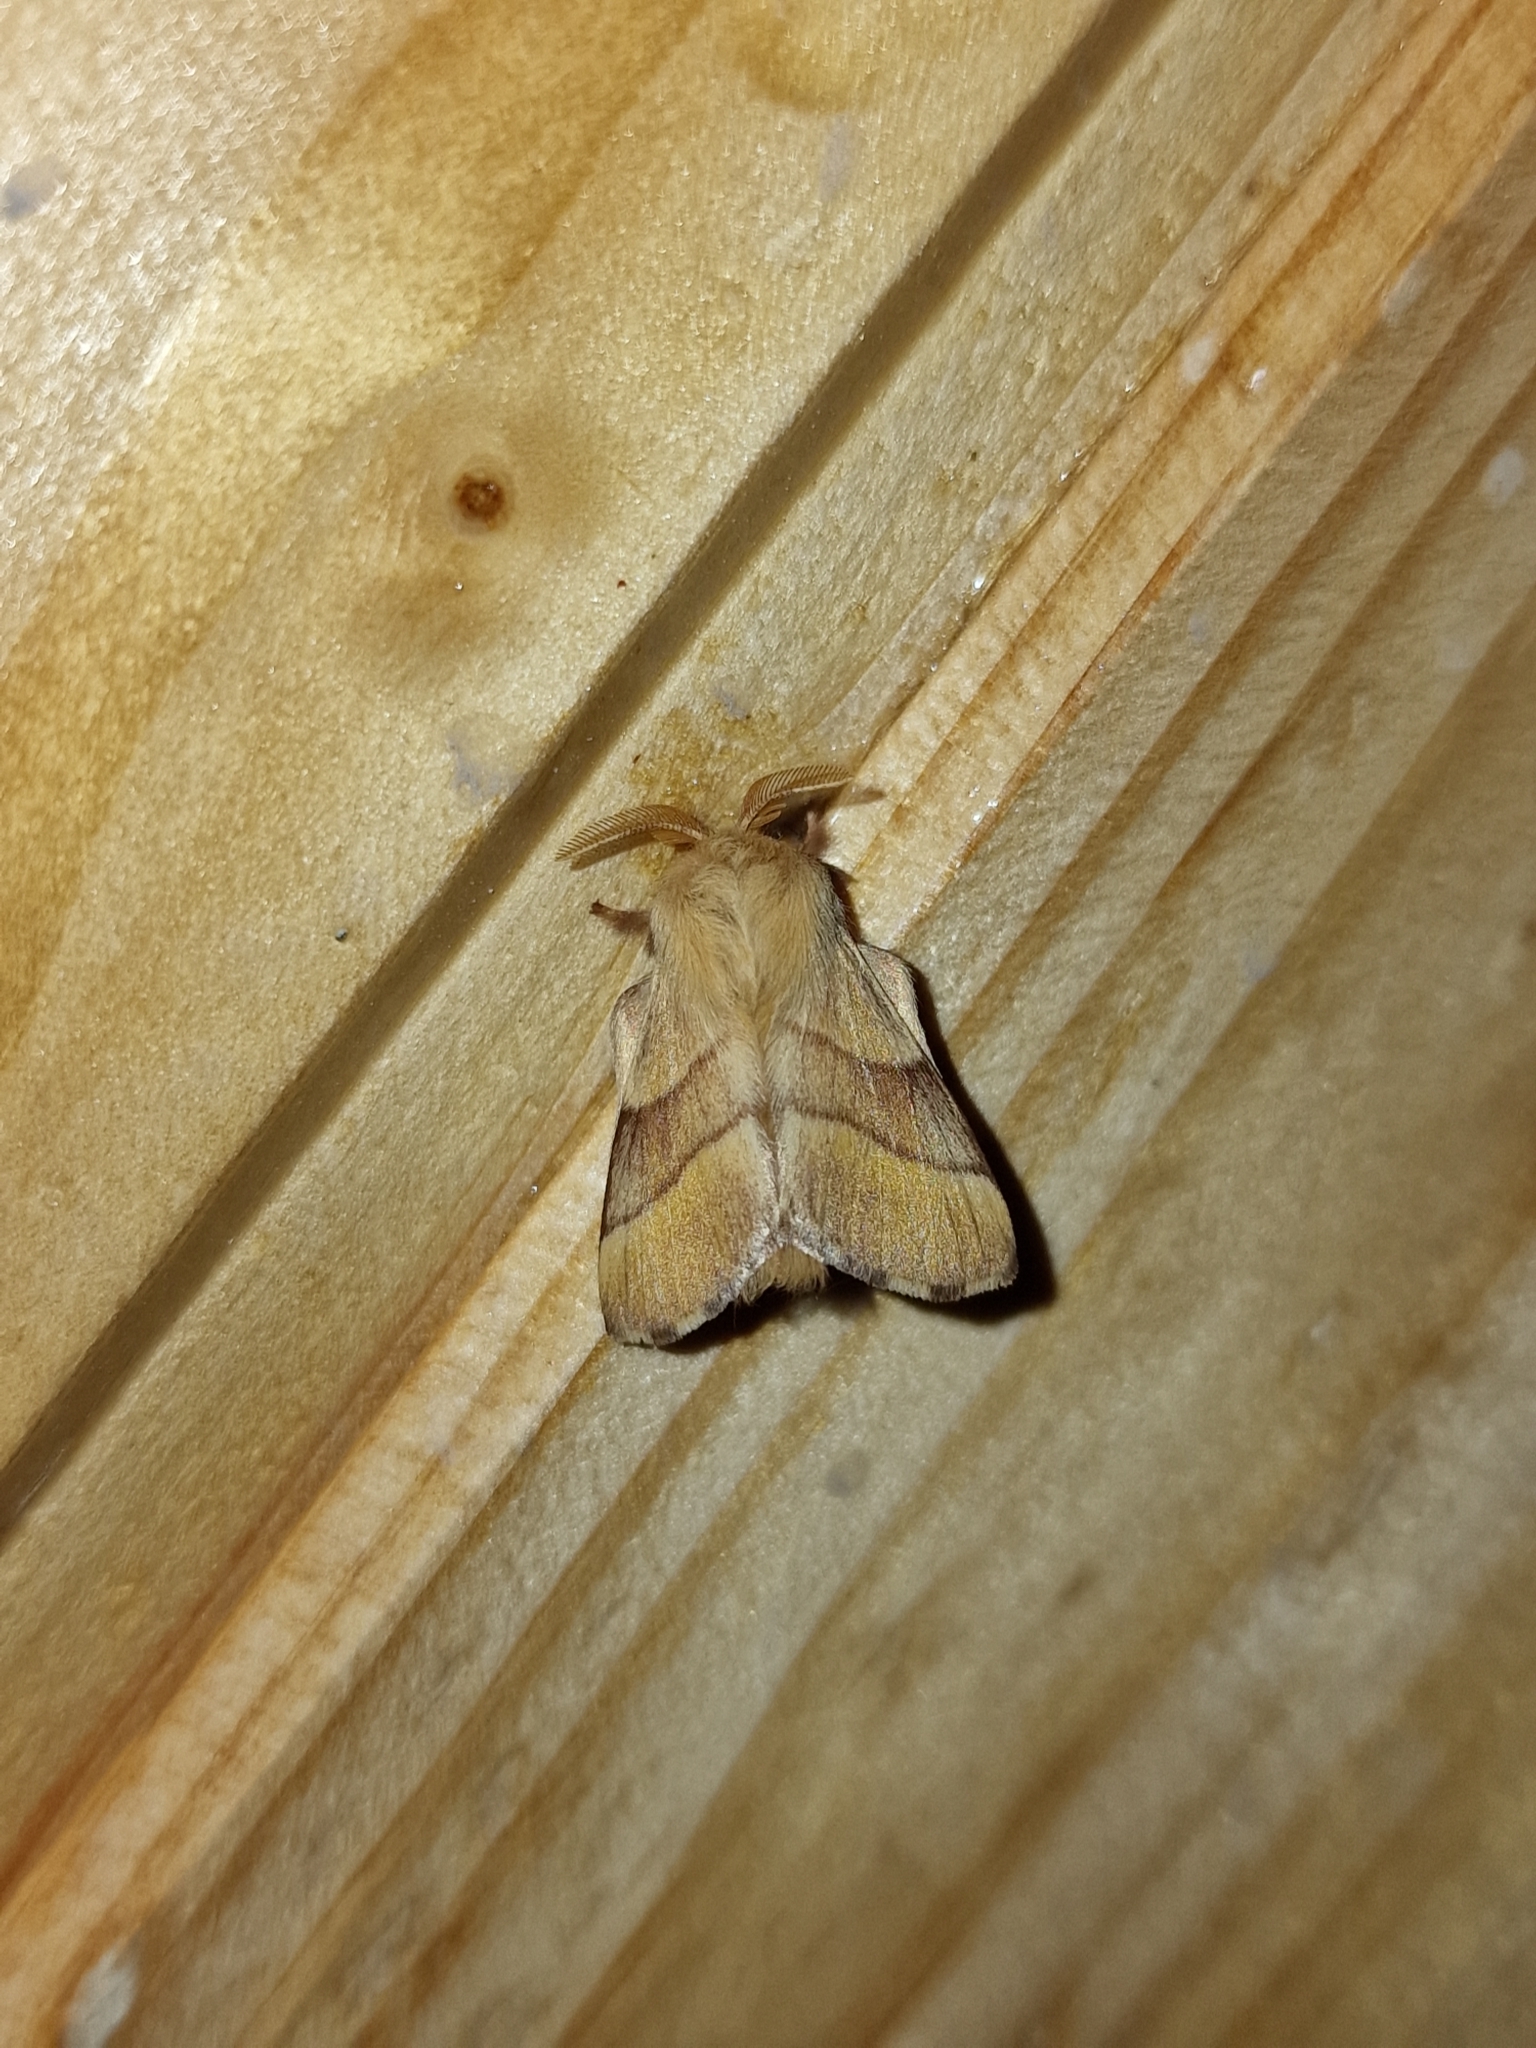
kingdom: Animalia
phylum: Arthropoda
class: Insecta
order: Lepidoptera
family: Lasiocampidae
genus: Malacosoma
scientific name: Malacosoma neustria
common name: The lackey
